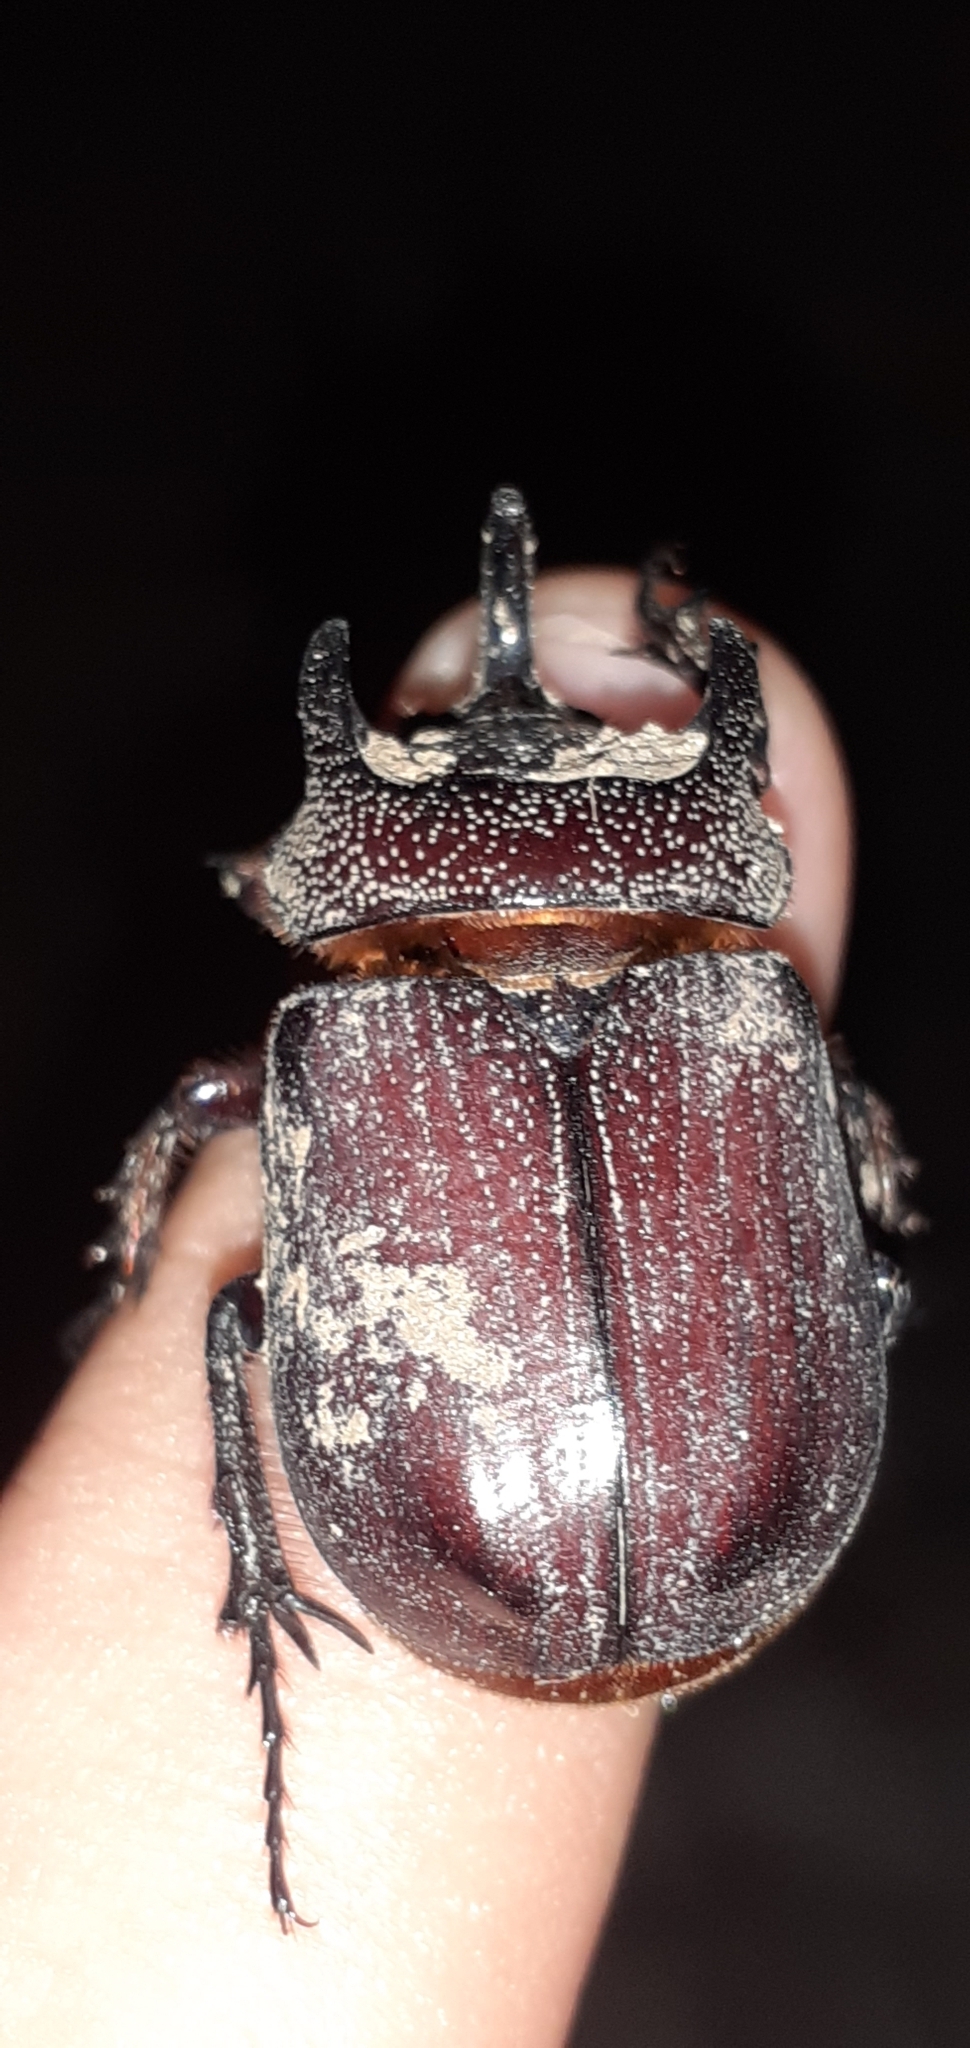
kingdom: Animalia
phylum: Arthropoda
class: Insecta
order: Coleoptera
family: Scarabaeidae
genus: Coelosis
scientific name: Coelosis bicornis
